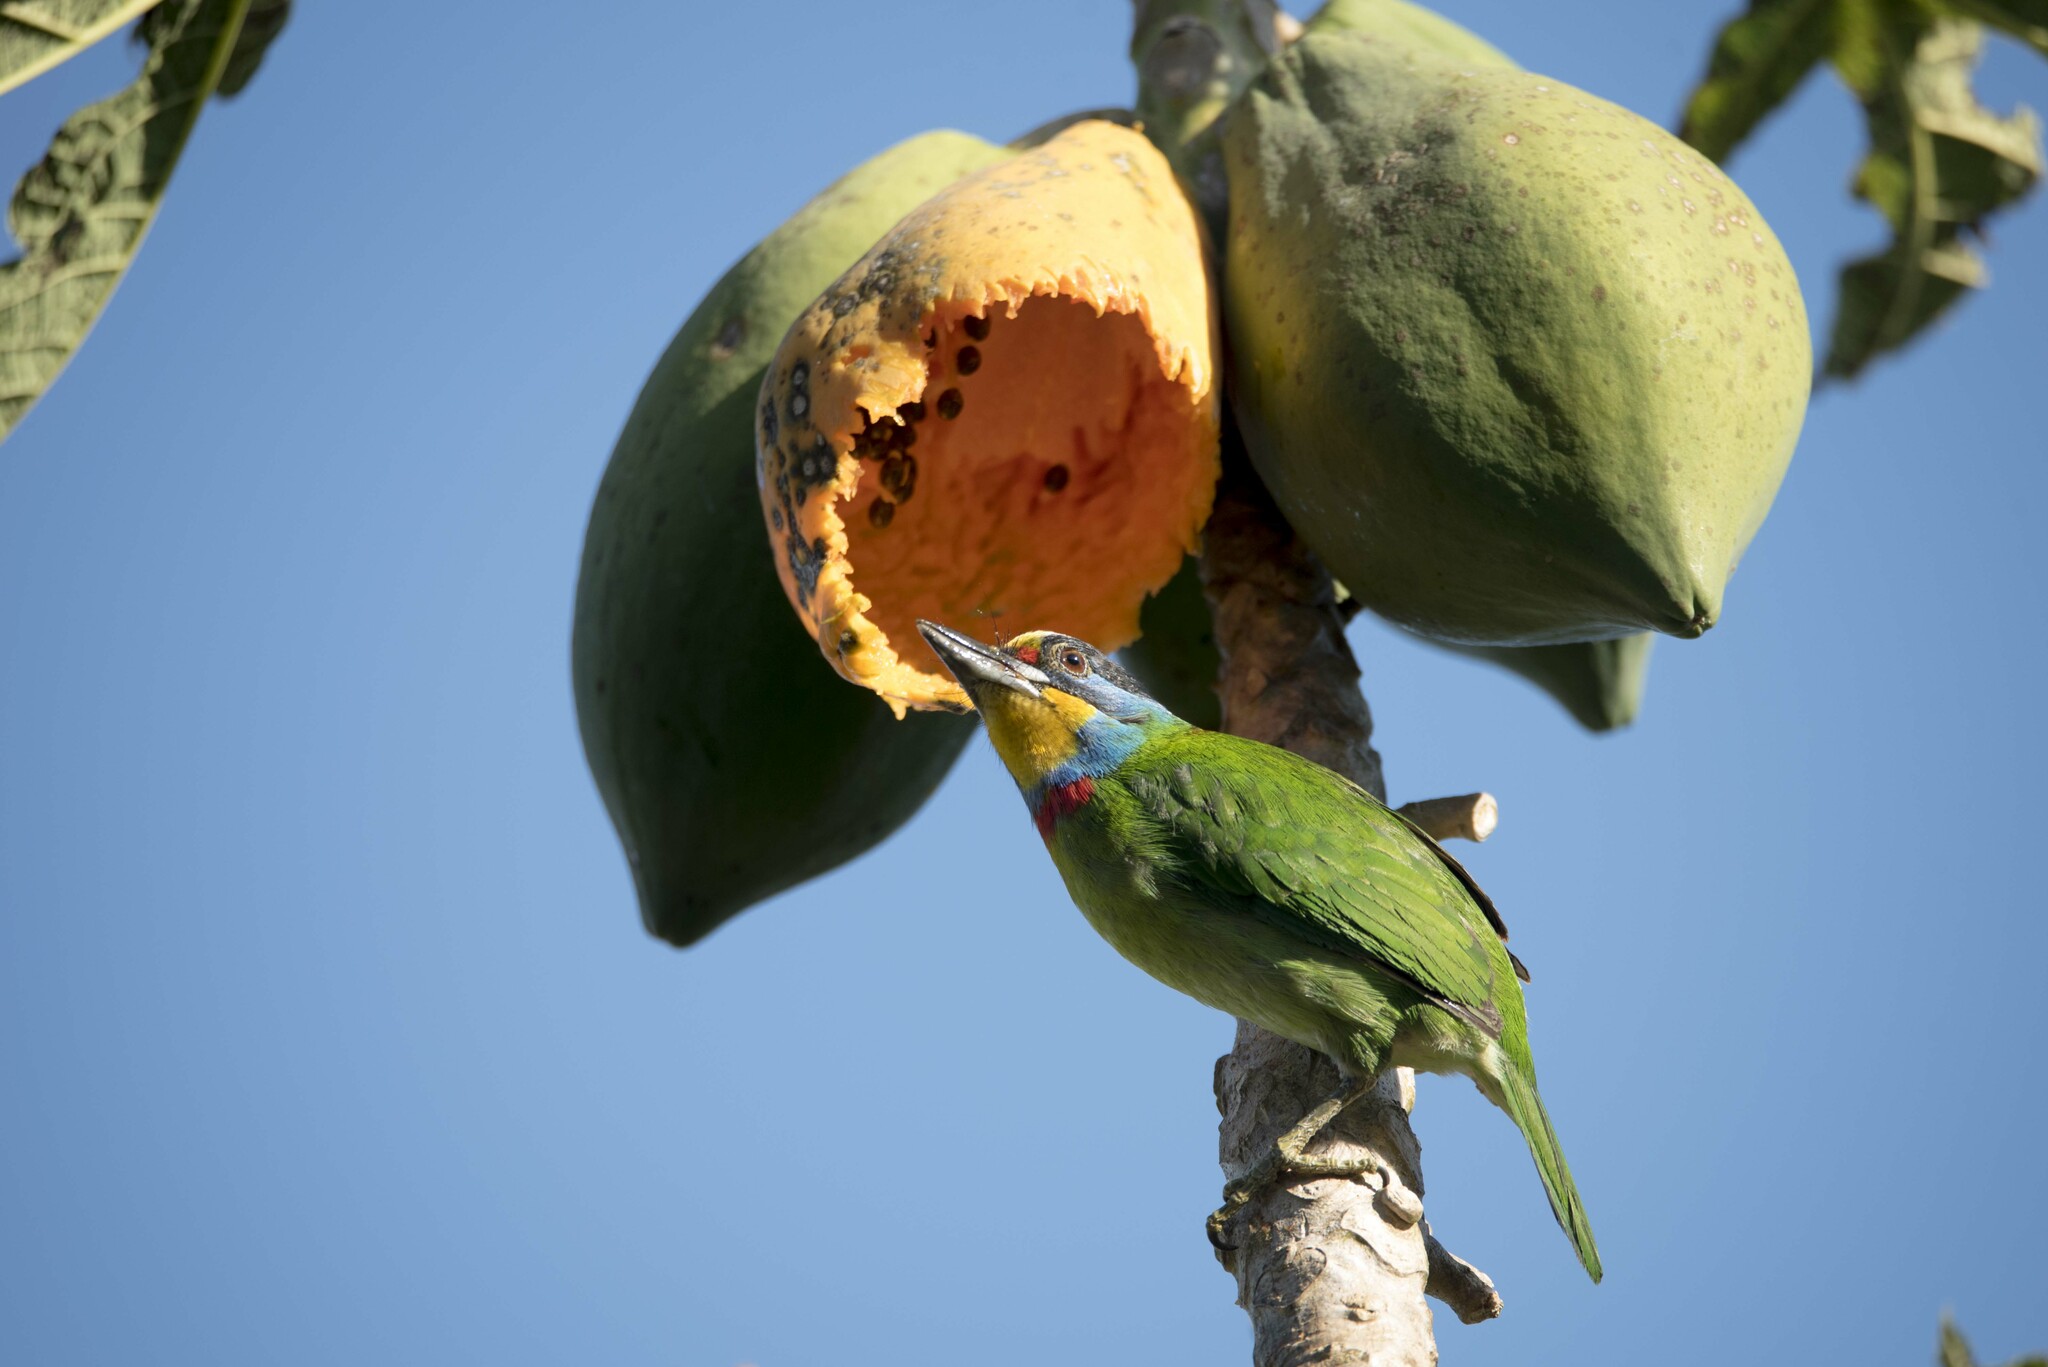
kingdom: Animalia
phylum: Chordata
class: Aves
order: Piciformes
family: Megalaimidae
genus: Psilopogon
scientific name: Psilopogon nuchalis
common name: Taiwan barbet
